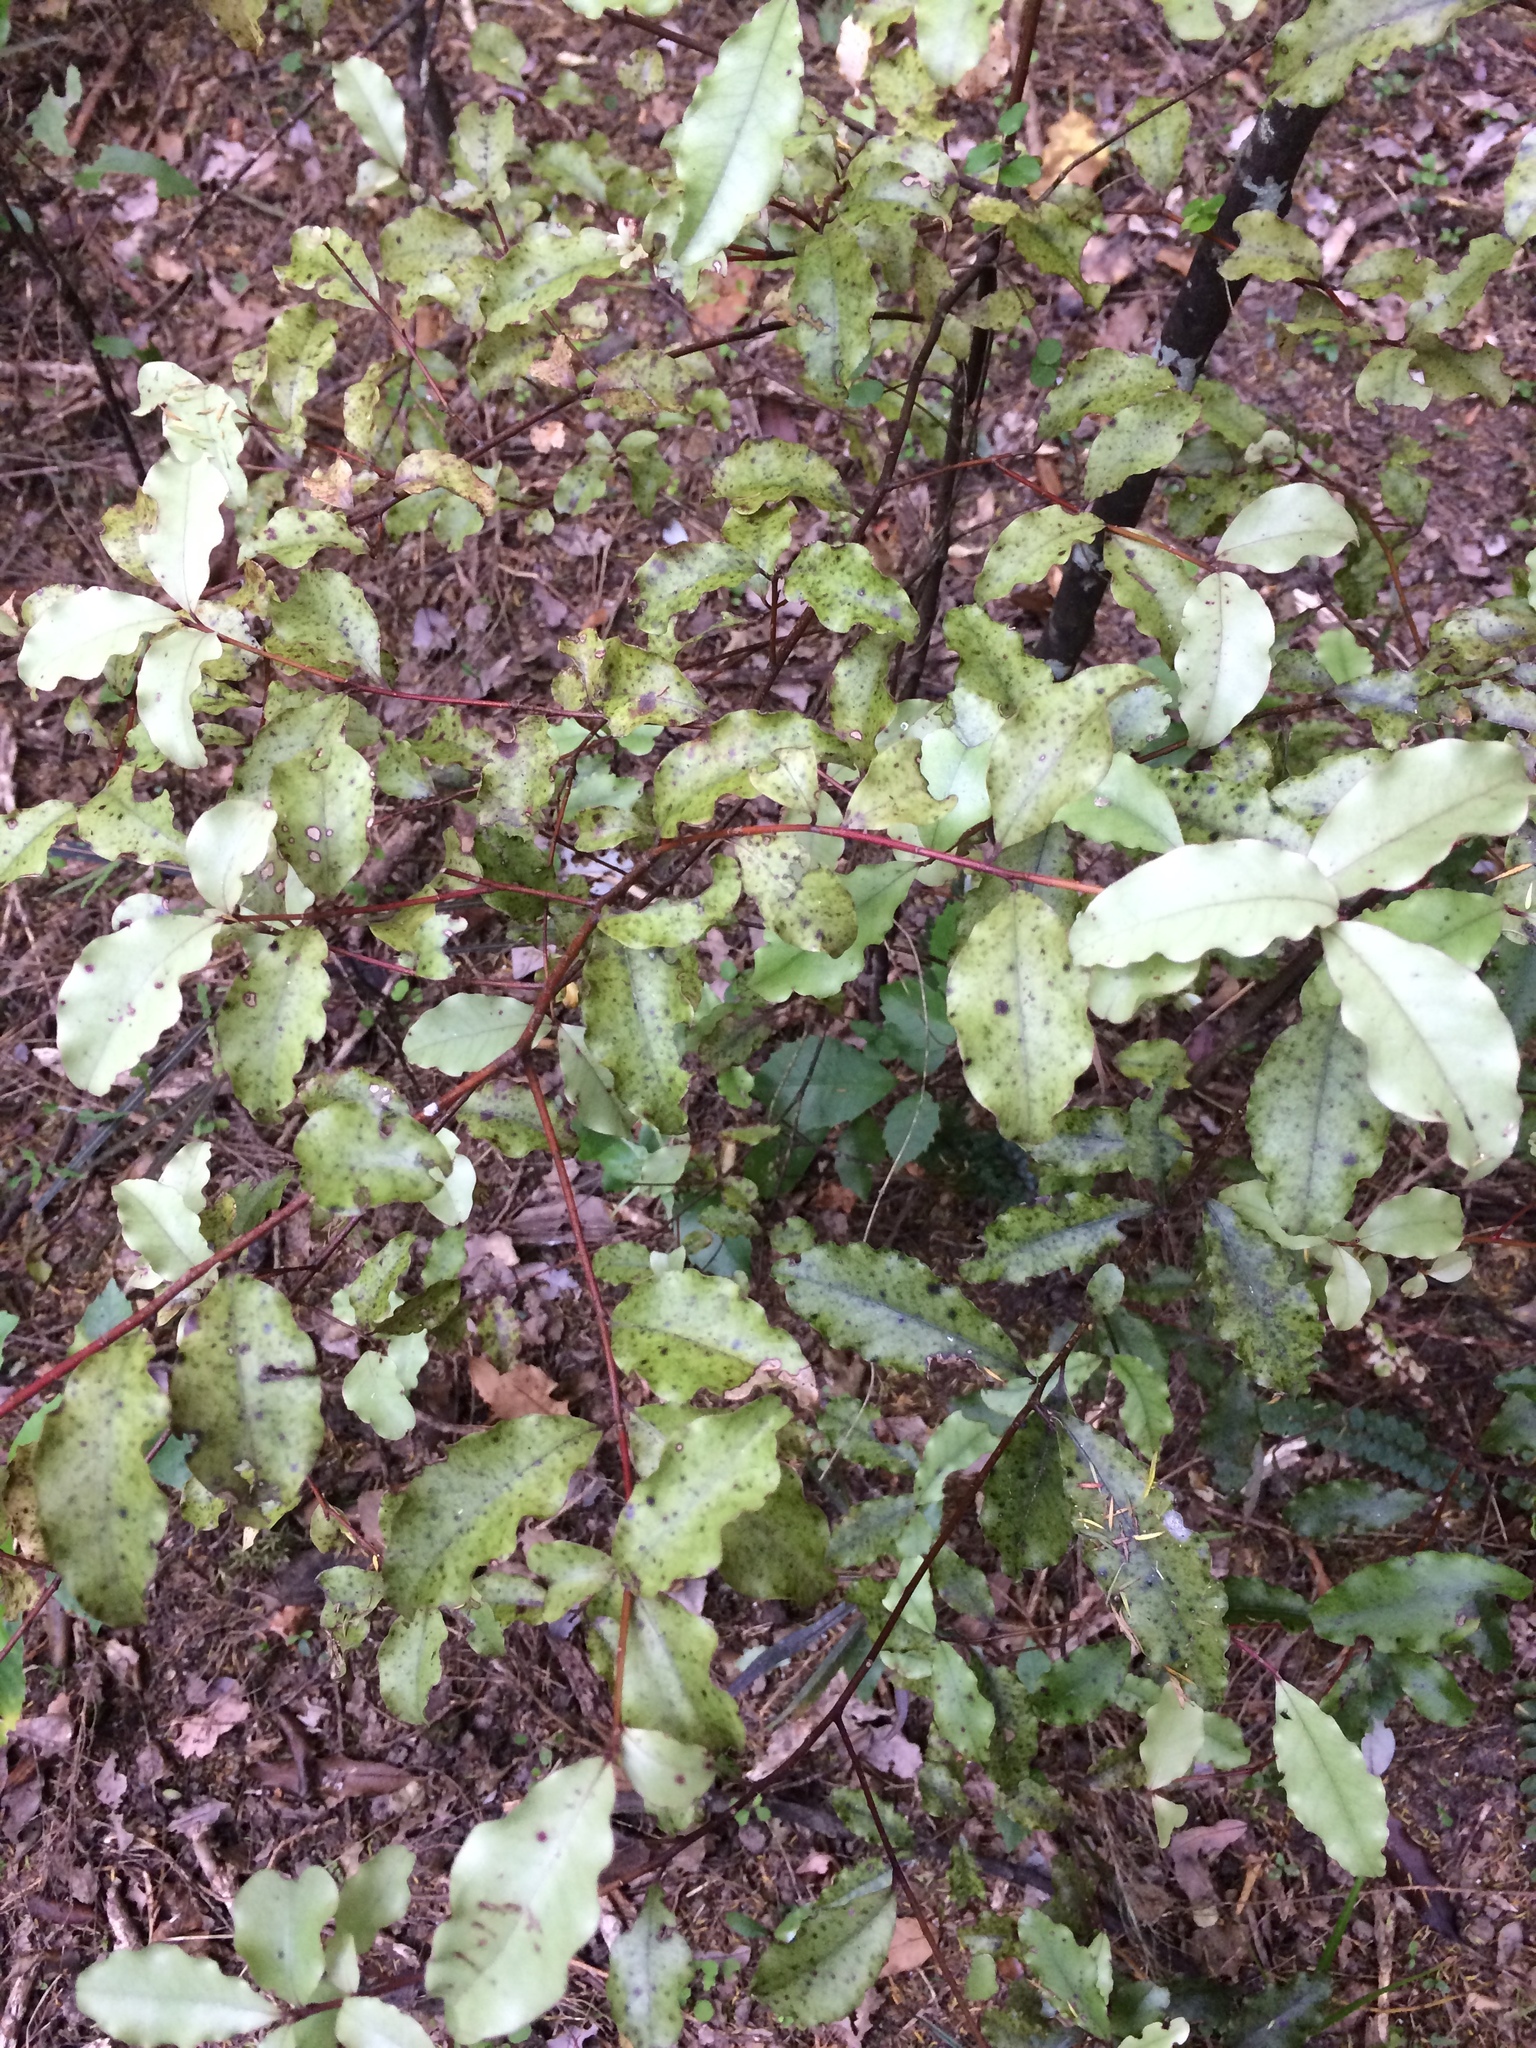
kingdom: Plantae
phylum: Tracheophyta
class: Magnoliopsida
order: Ericales
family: Primulaceae
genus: Myrsine
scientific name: Myrsine australis
